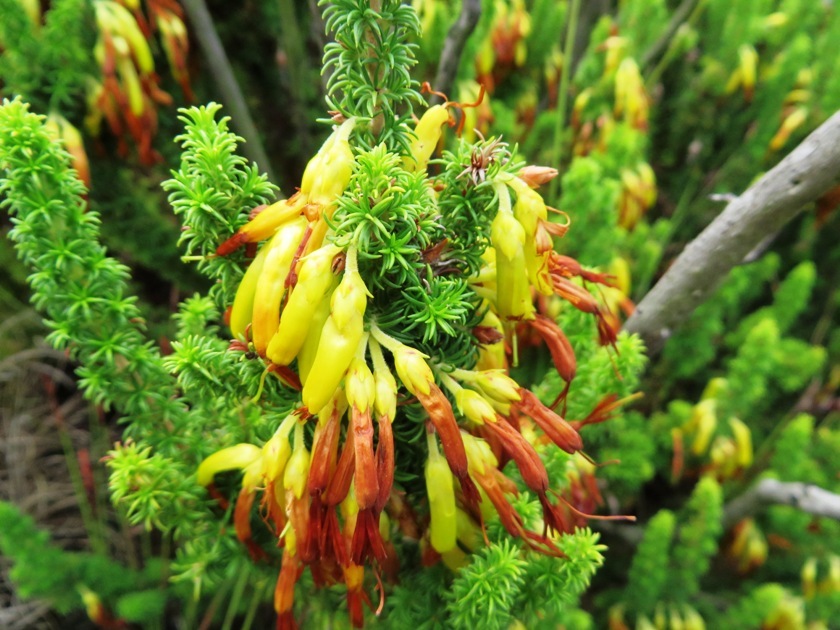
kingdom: Plantae
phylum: Tracheophyta
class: Magnoliopsida
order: Ericales
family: Ericaceae
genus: Erica
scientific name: Erica coccinea
